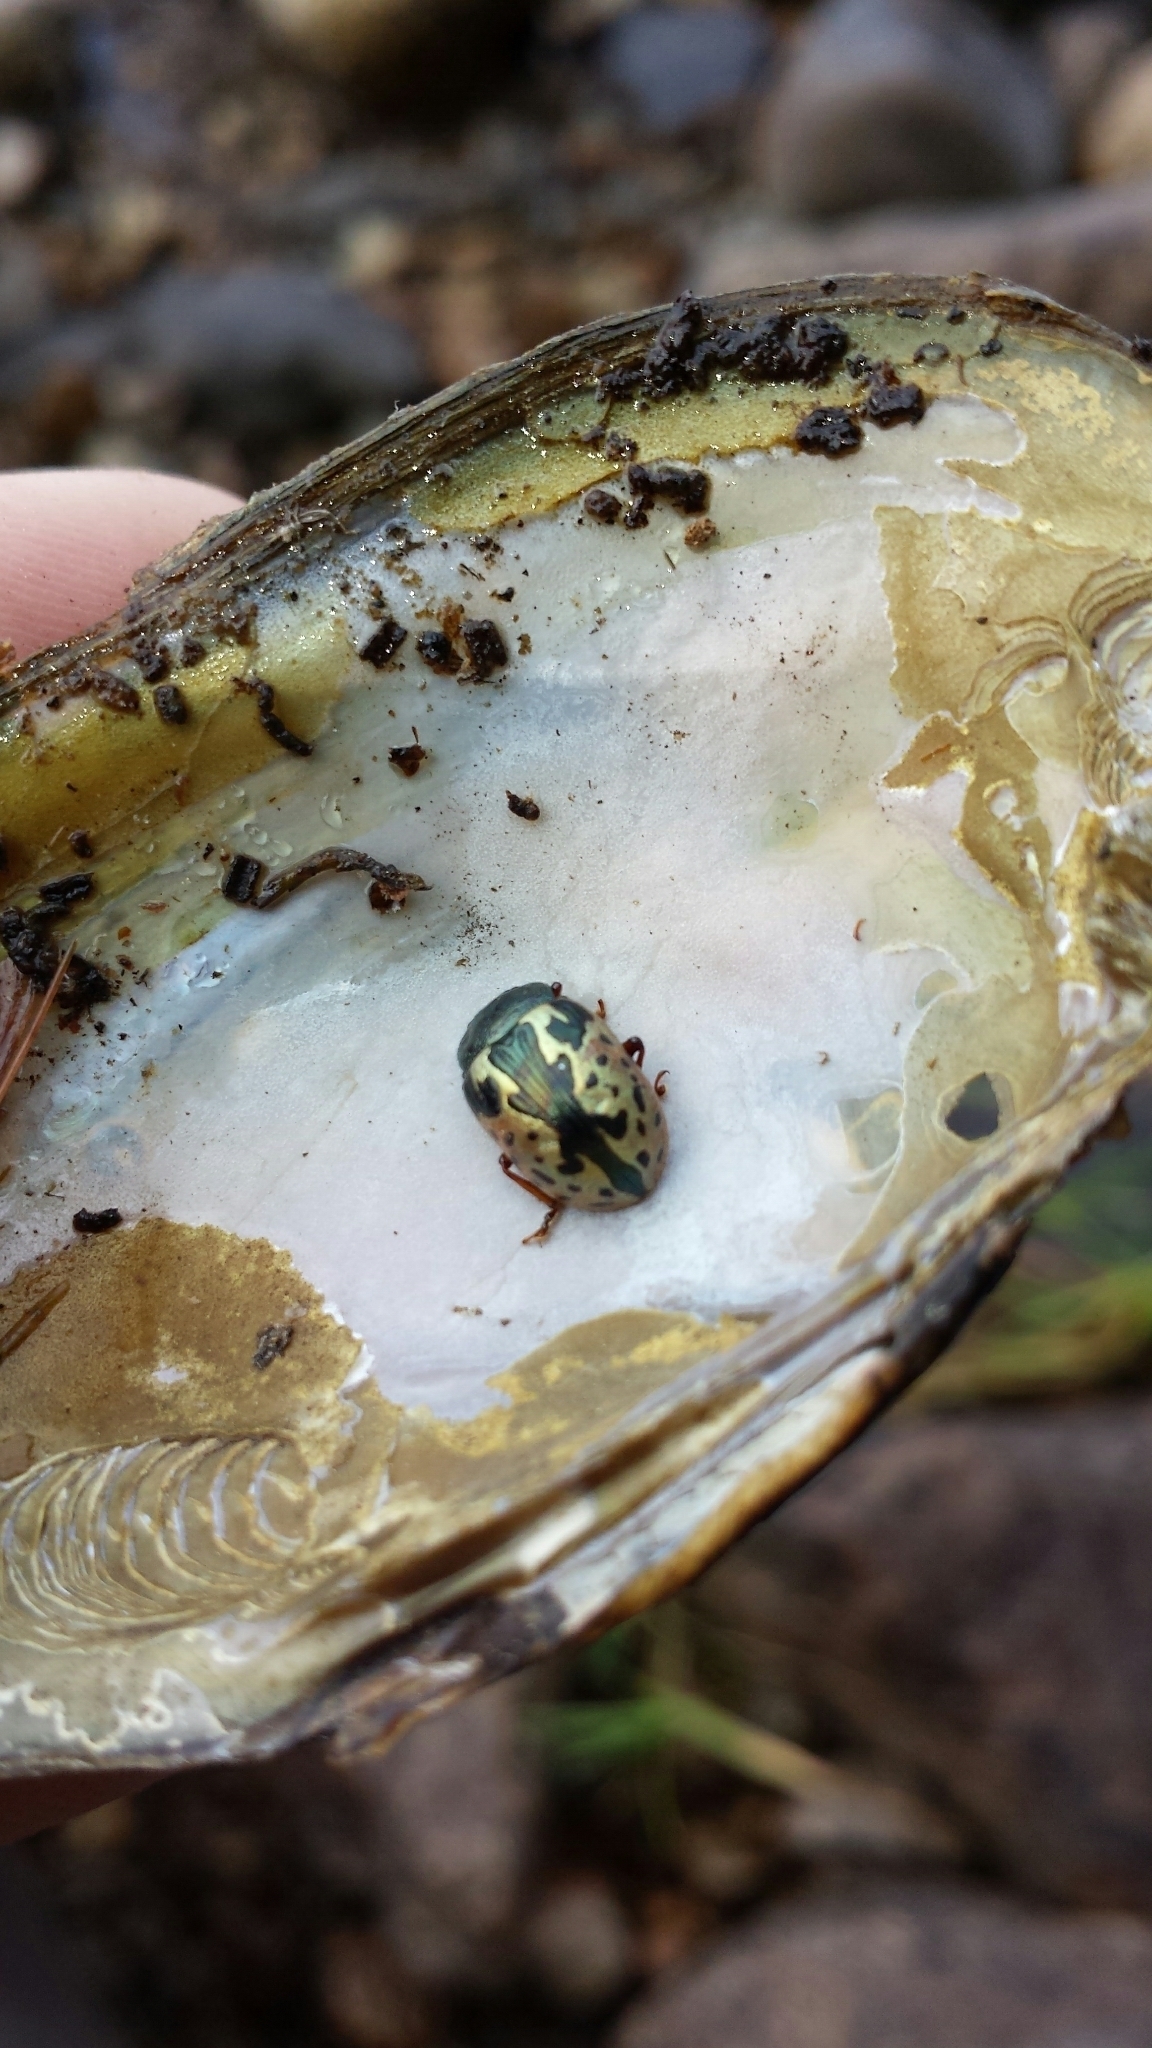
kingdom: Animalia
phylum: Arthropoda
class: Insecta
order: Coleoptera
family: Chrysomelidae
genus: Calligrapha
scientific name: Calligrapha rowena
